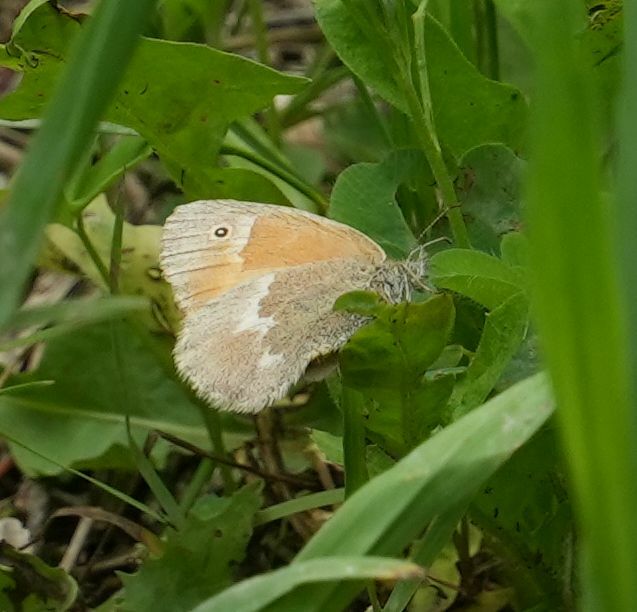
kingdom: Animalia
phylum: Arthropoda
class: Insecta
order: Lepidoptera
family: Nymphalidae
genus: Coenonympha
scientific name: Coenonympha california
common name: Common ringlet
